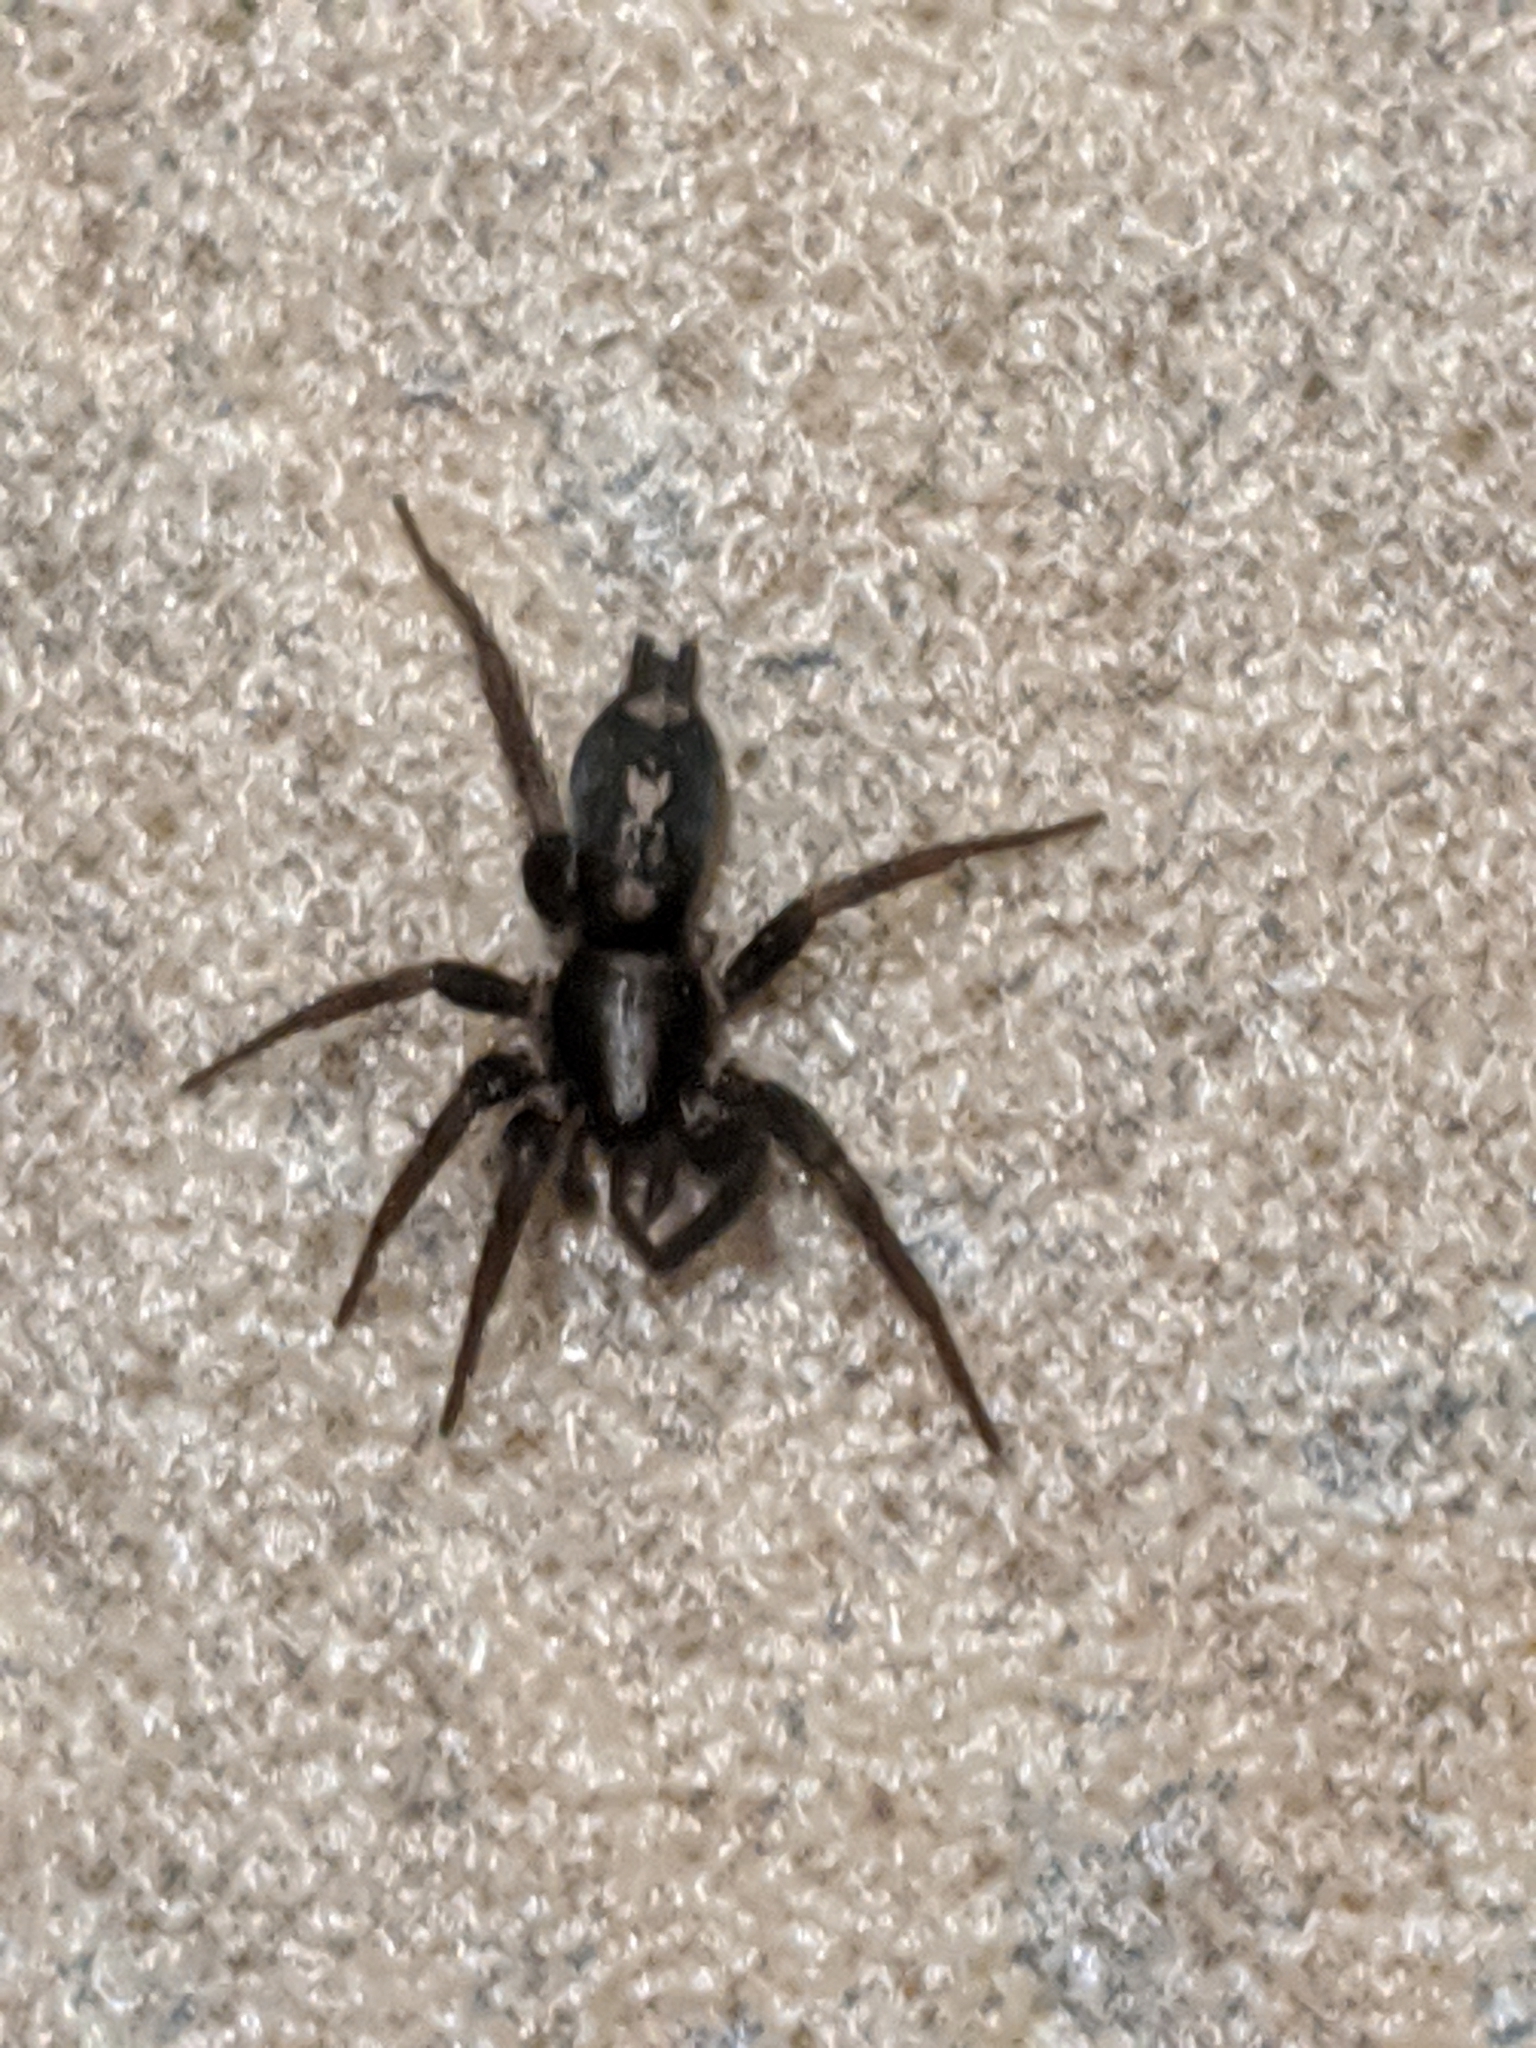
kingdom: Animalia
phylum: Arthropoda
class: Arachnida
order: Araneae
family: Gnaphosidae
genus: Herpyllus
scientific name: Herpyllus ecclesiasticus
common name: Eastern parson spider
